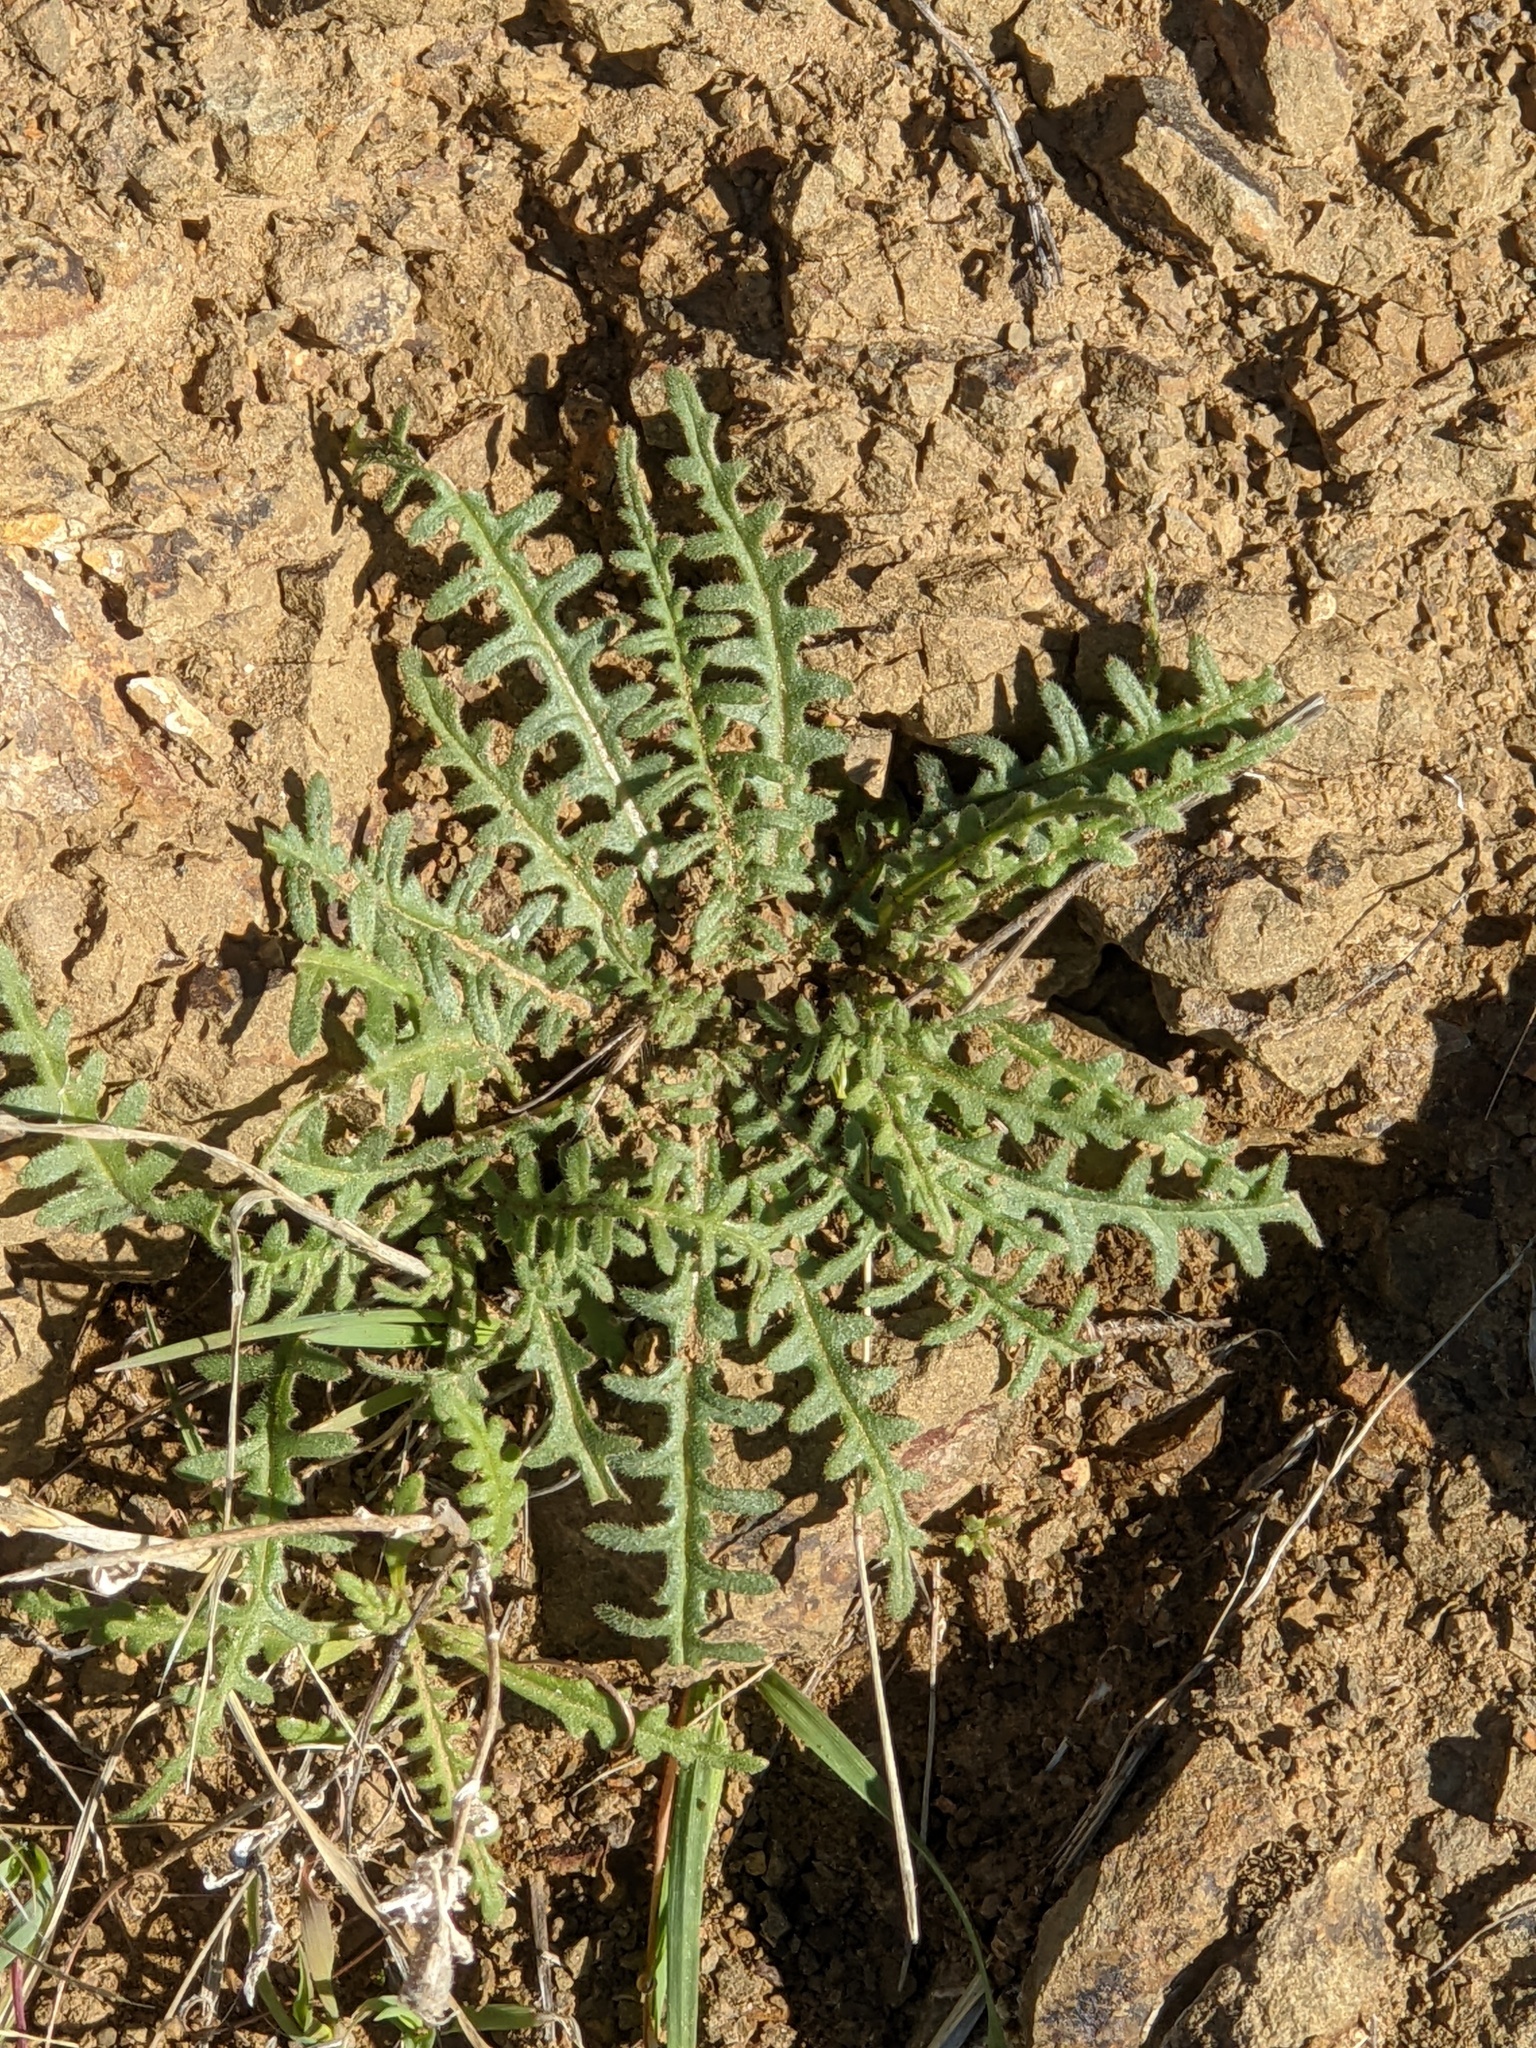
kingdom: Plantae
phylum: Tracheophyta
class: Magnoliopsida
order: Cornales
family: Loasaceae
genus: Mentzelia
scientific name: Mentzelia lindleyi
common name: Golden bartonia
